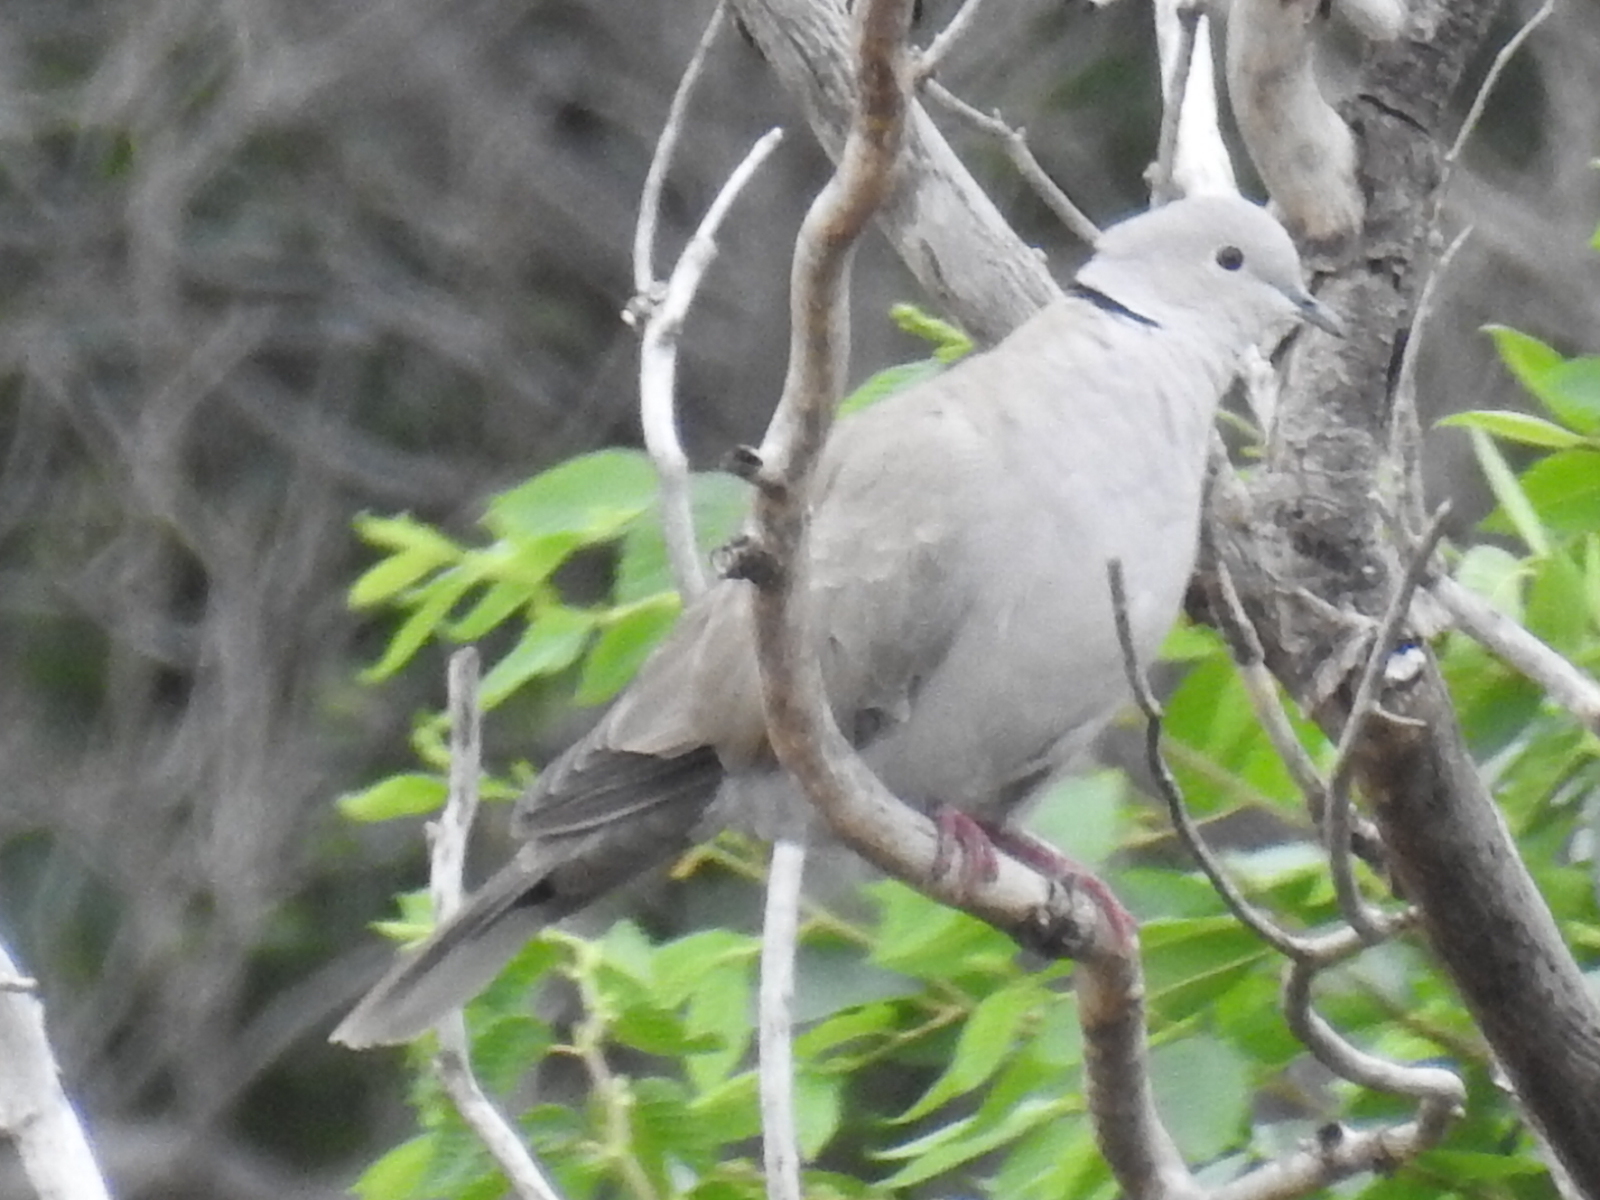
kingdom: Animalia
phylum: Chordata
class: Aves
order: Columbiformes
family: Columbidae
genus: Streptopelia
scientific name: Streptopelia decaocto
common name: Eurasian collared dove
